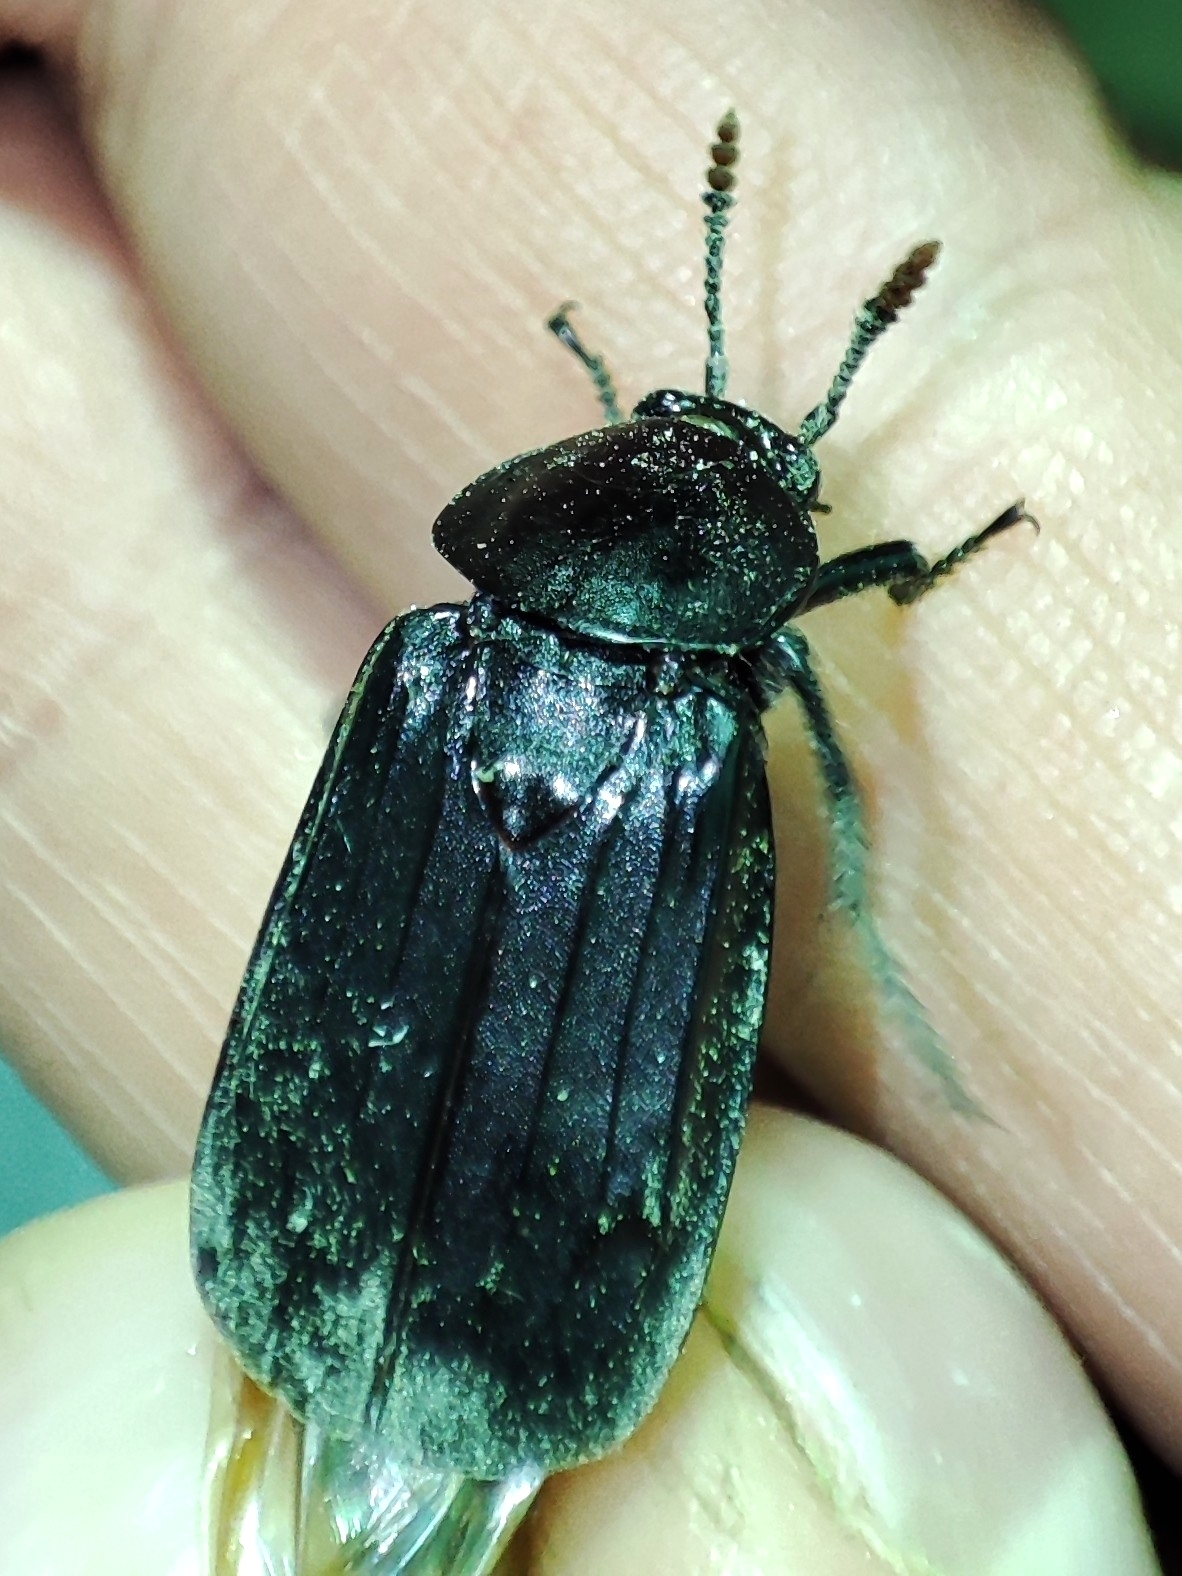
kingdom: Animalia
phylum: Arthropoda
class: Insecta
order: Coleoptera
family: Staphylinidae
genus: Necrodes
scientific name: Necrodes littoralis
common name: Shore sexton beetle
